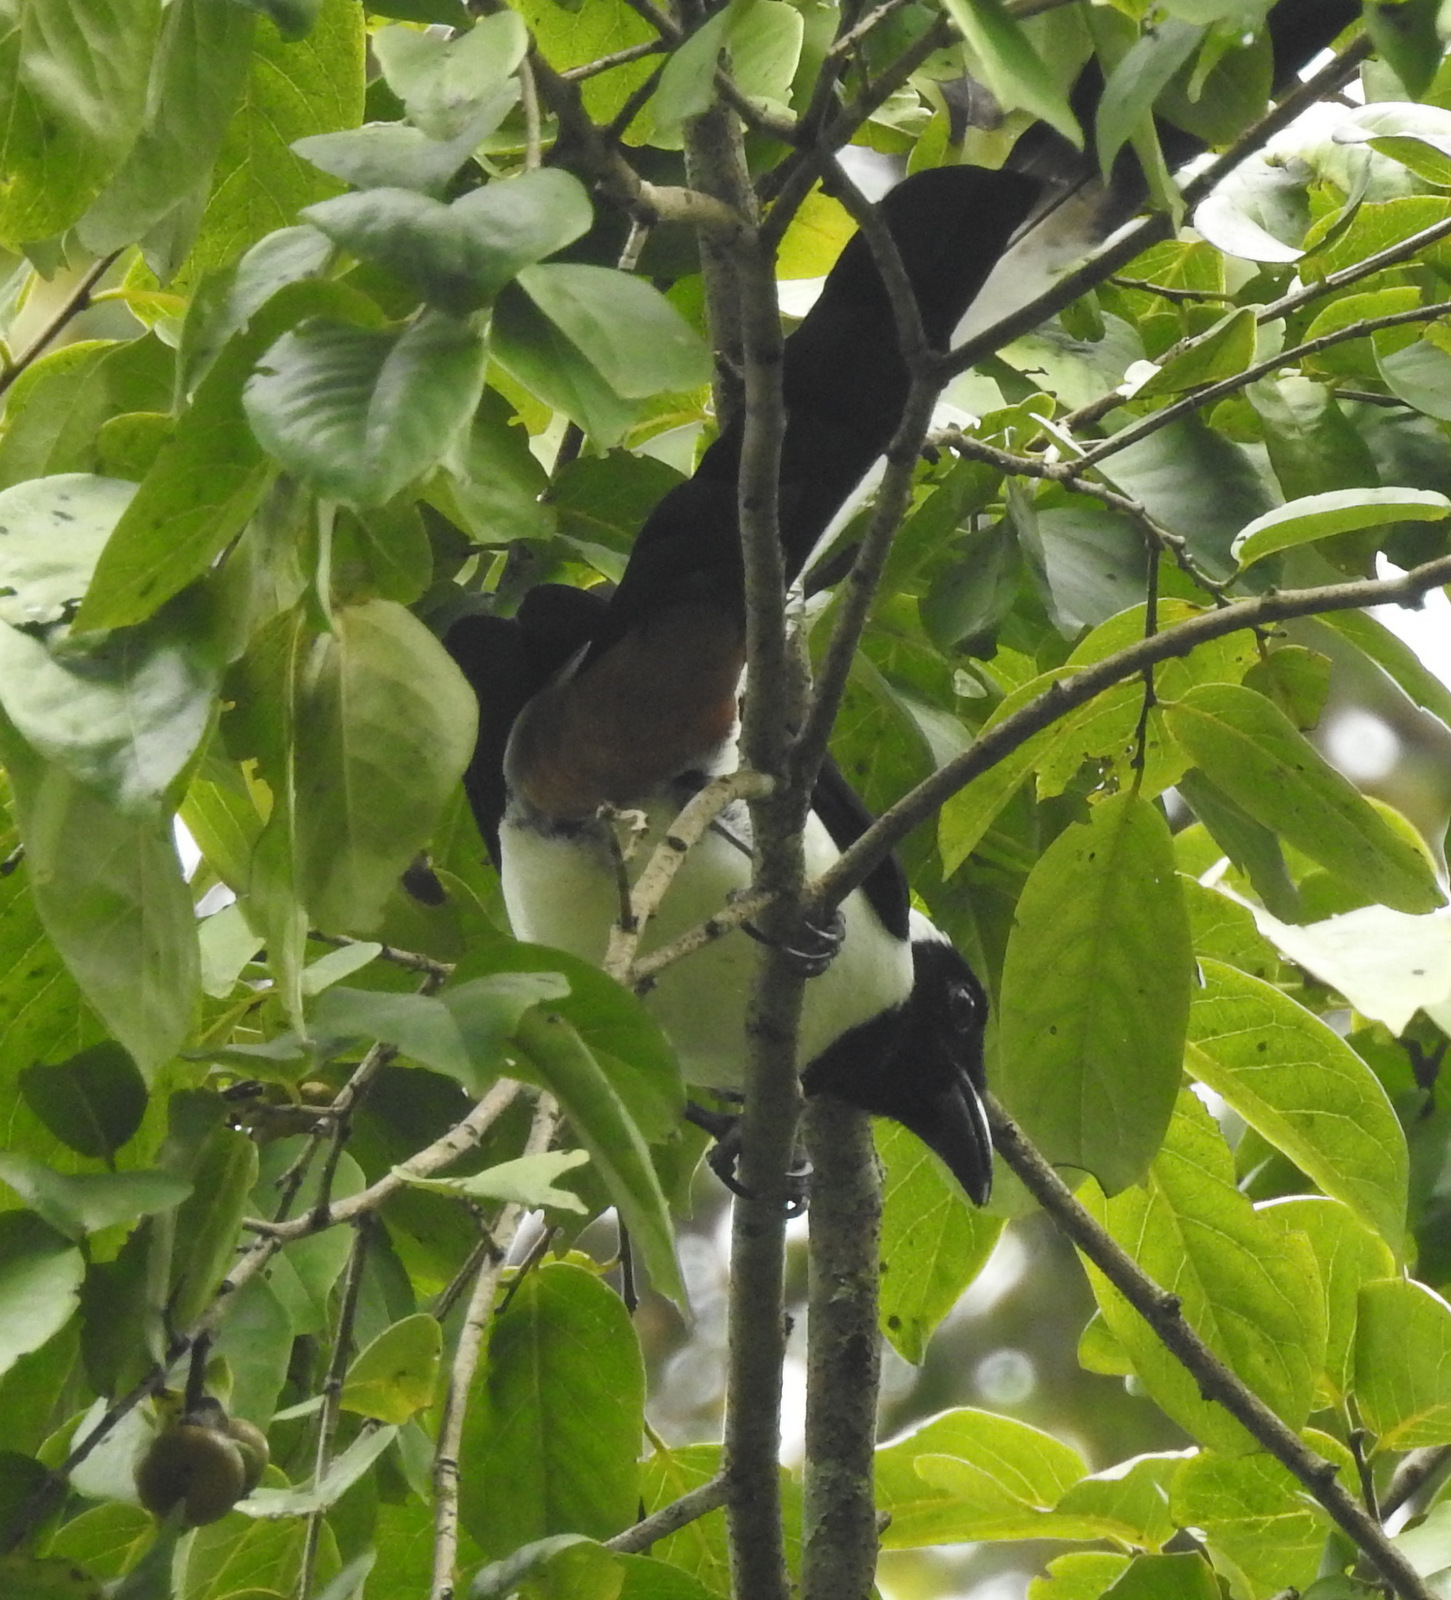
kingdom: Animalia
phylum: Chordata
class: Aves
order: Passeriformes
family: Corvidae
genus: Dendrocitta
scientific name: Dendrocitta leucogastra
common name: White-bellied treepie
